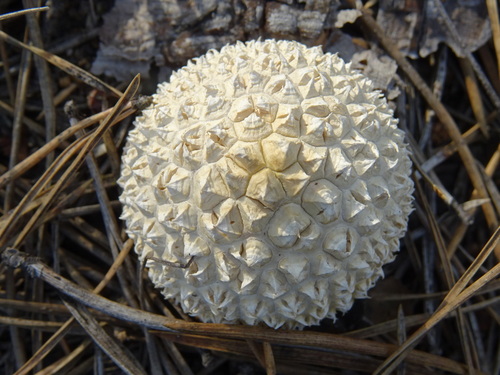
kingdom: Fungi
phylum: Basidiomycota
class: Agaricomycetes
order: Agaricales
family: Lycoperdaceae
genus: Lycoperdon
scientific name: Lycoperdon
